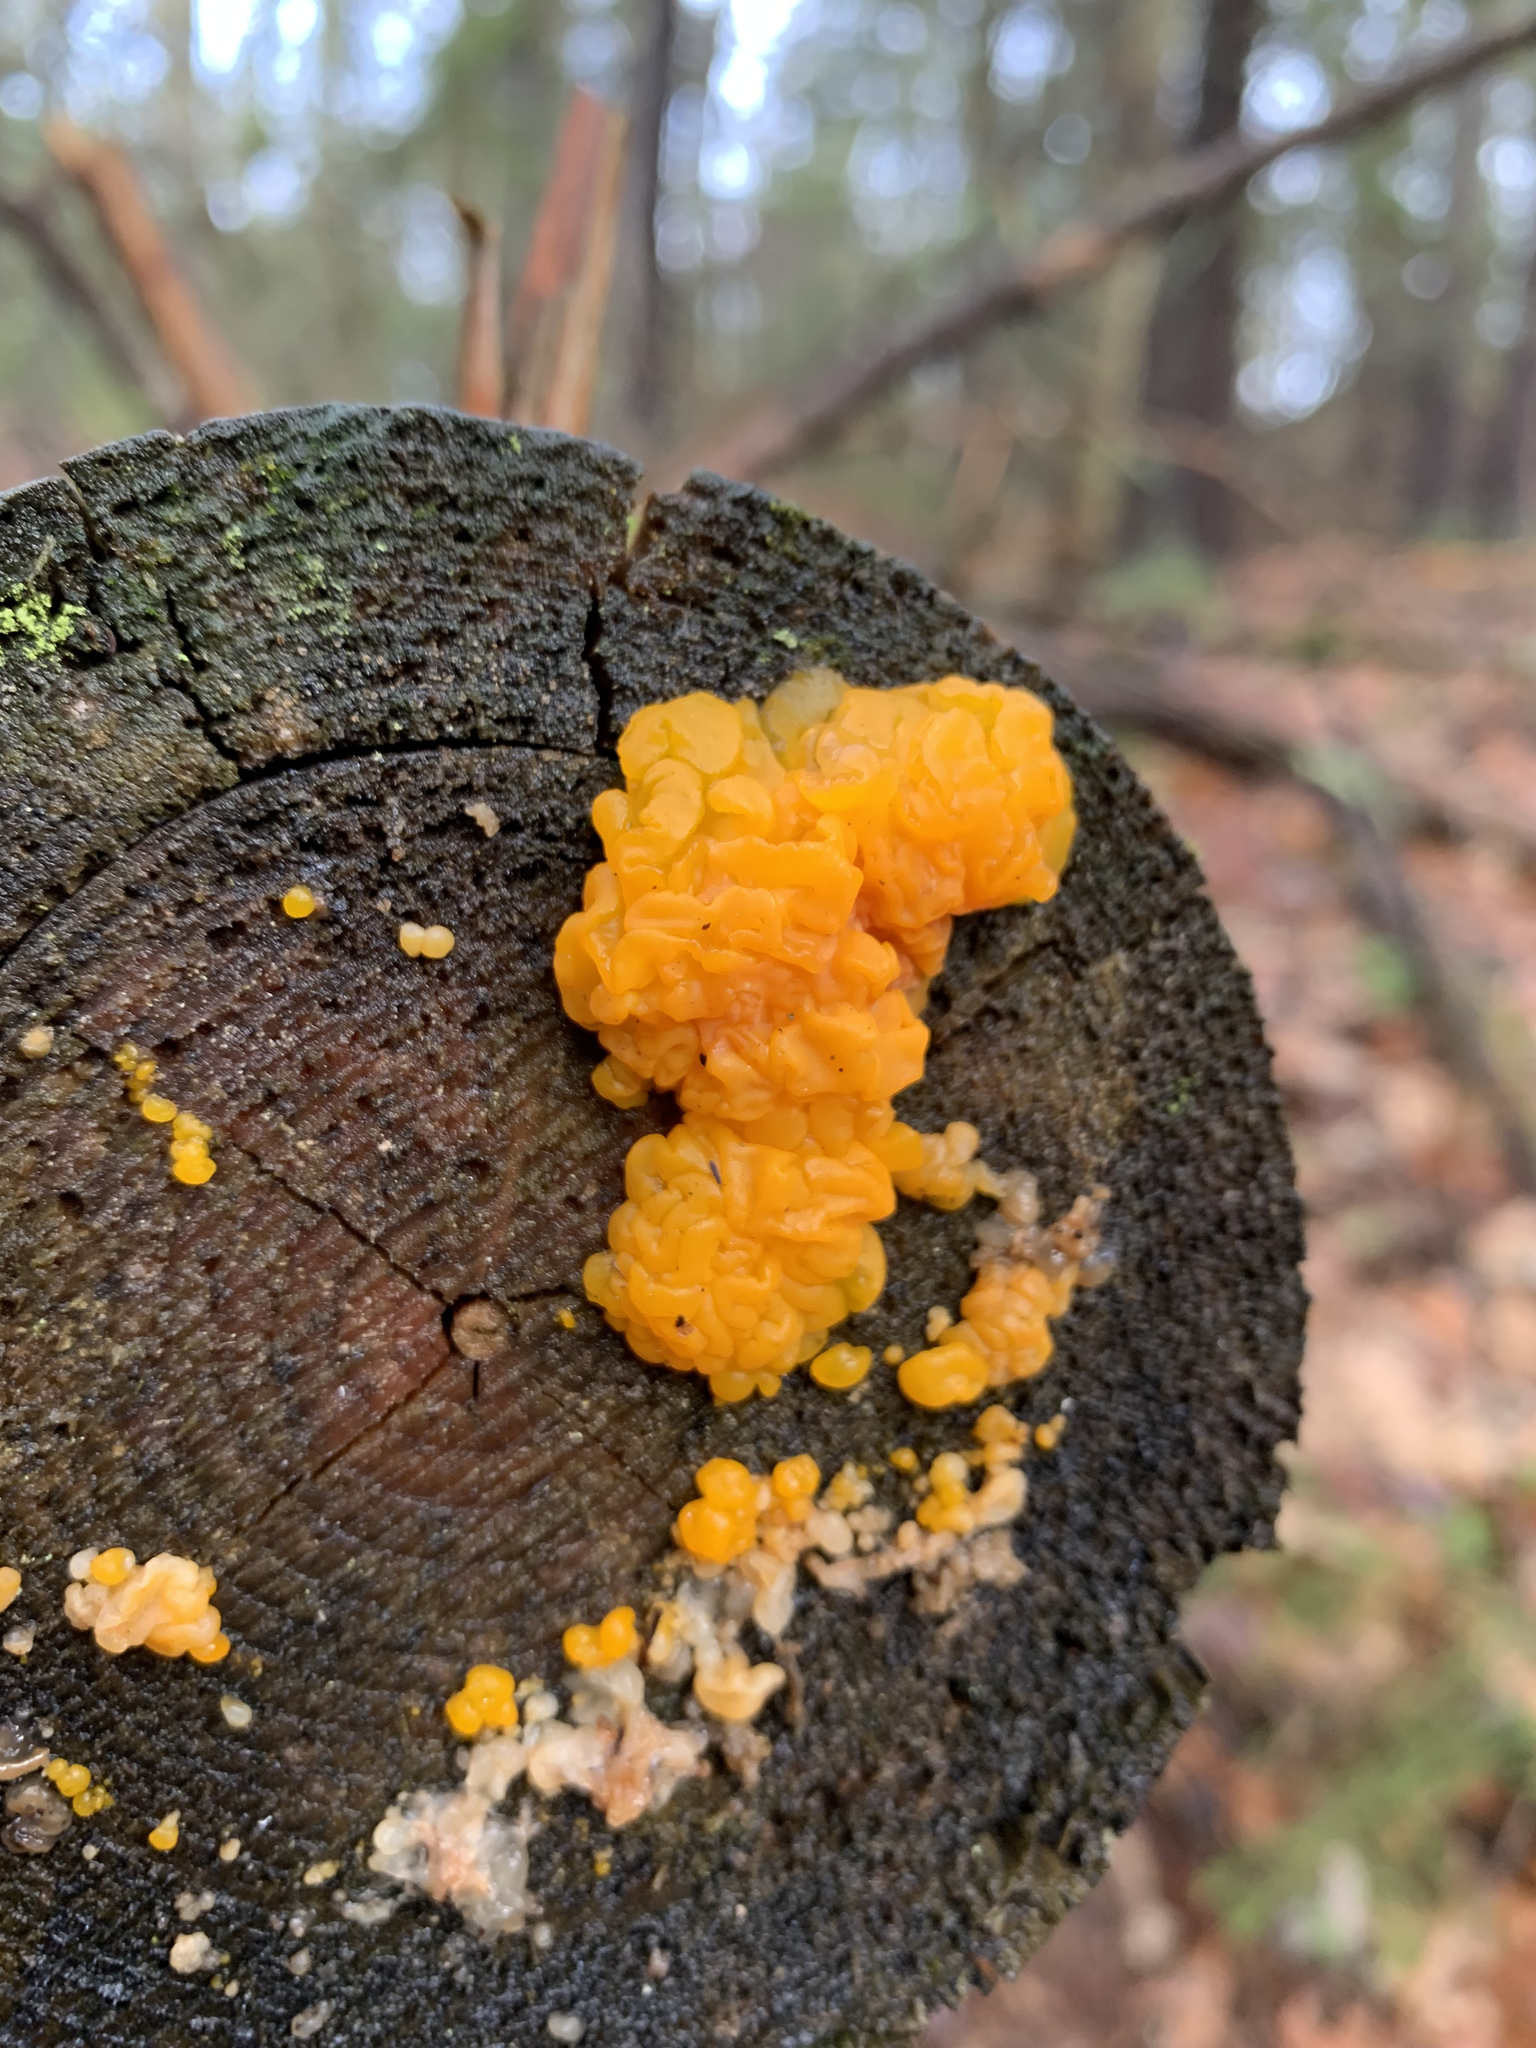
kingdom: Fungi
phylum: Basidiomycota
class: Dacrymycetes
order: Dacrymycetales
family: Dacrymycetaceae
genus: Dacrymyces
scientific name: Dacrymyces chrysospermus
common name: Orange jelly spot
